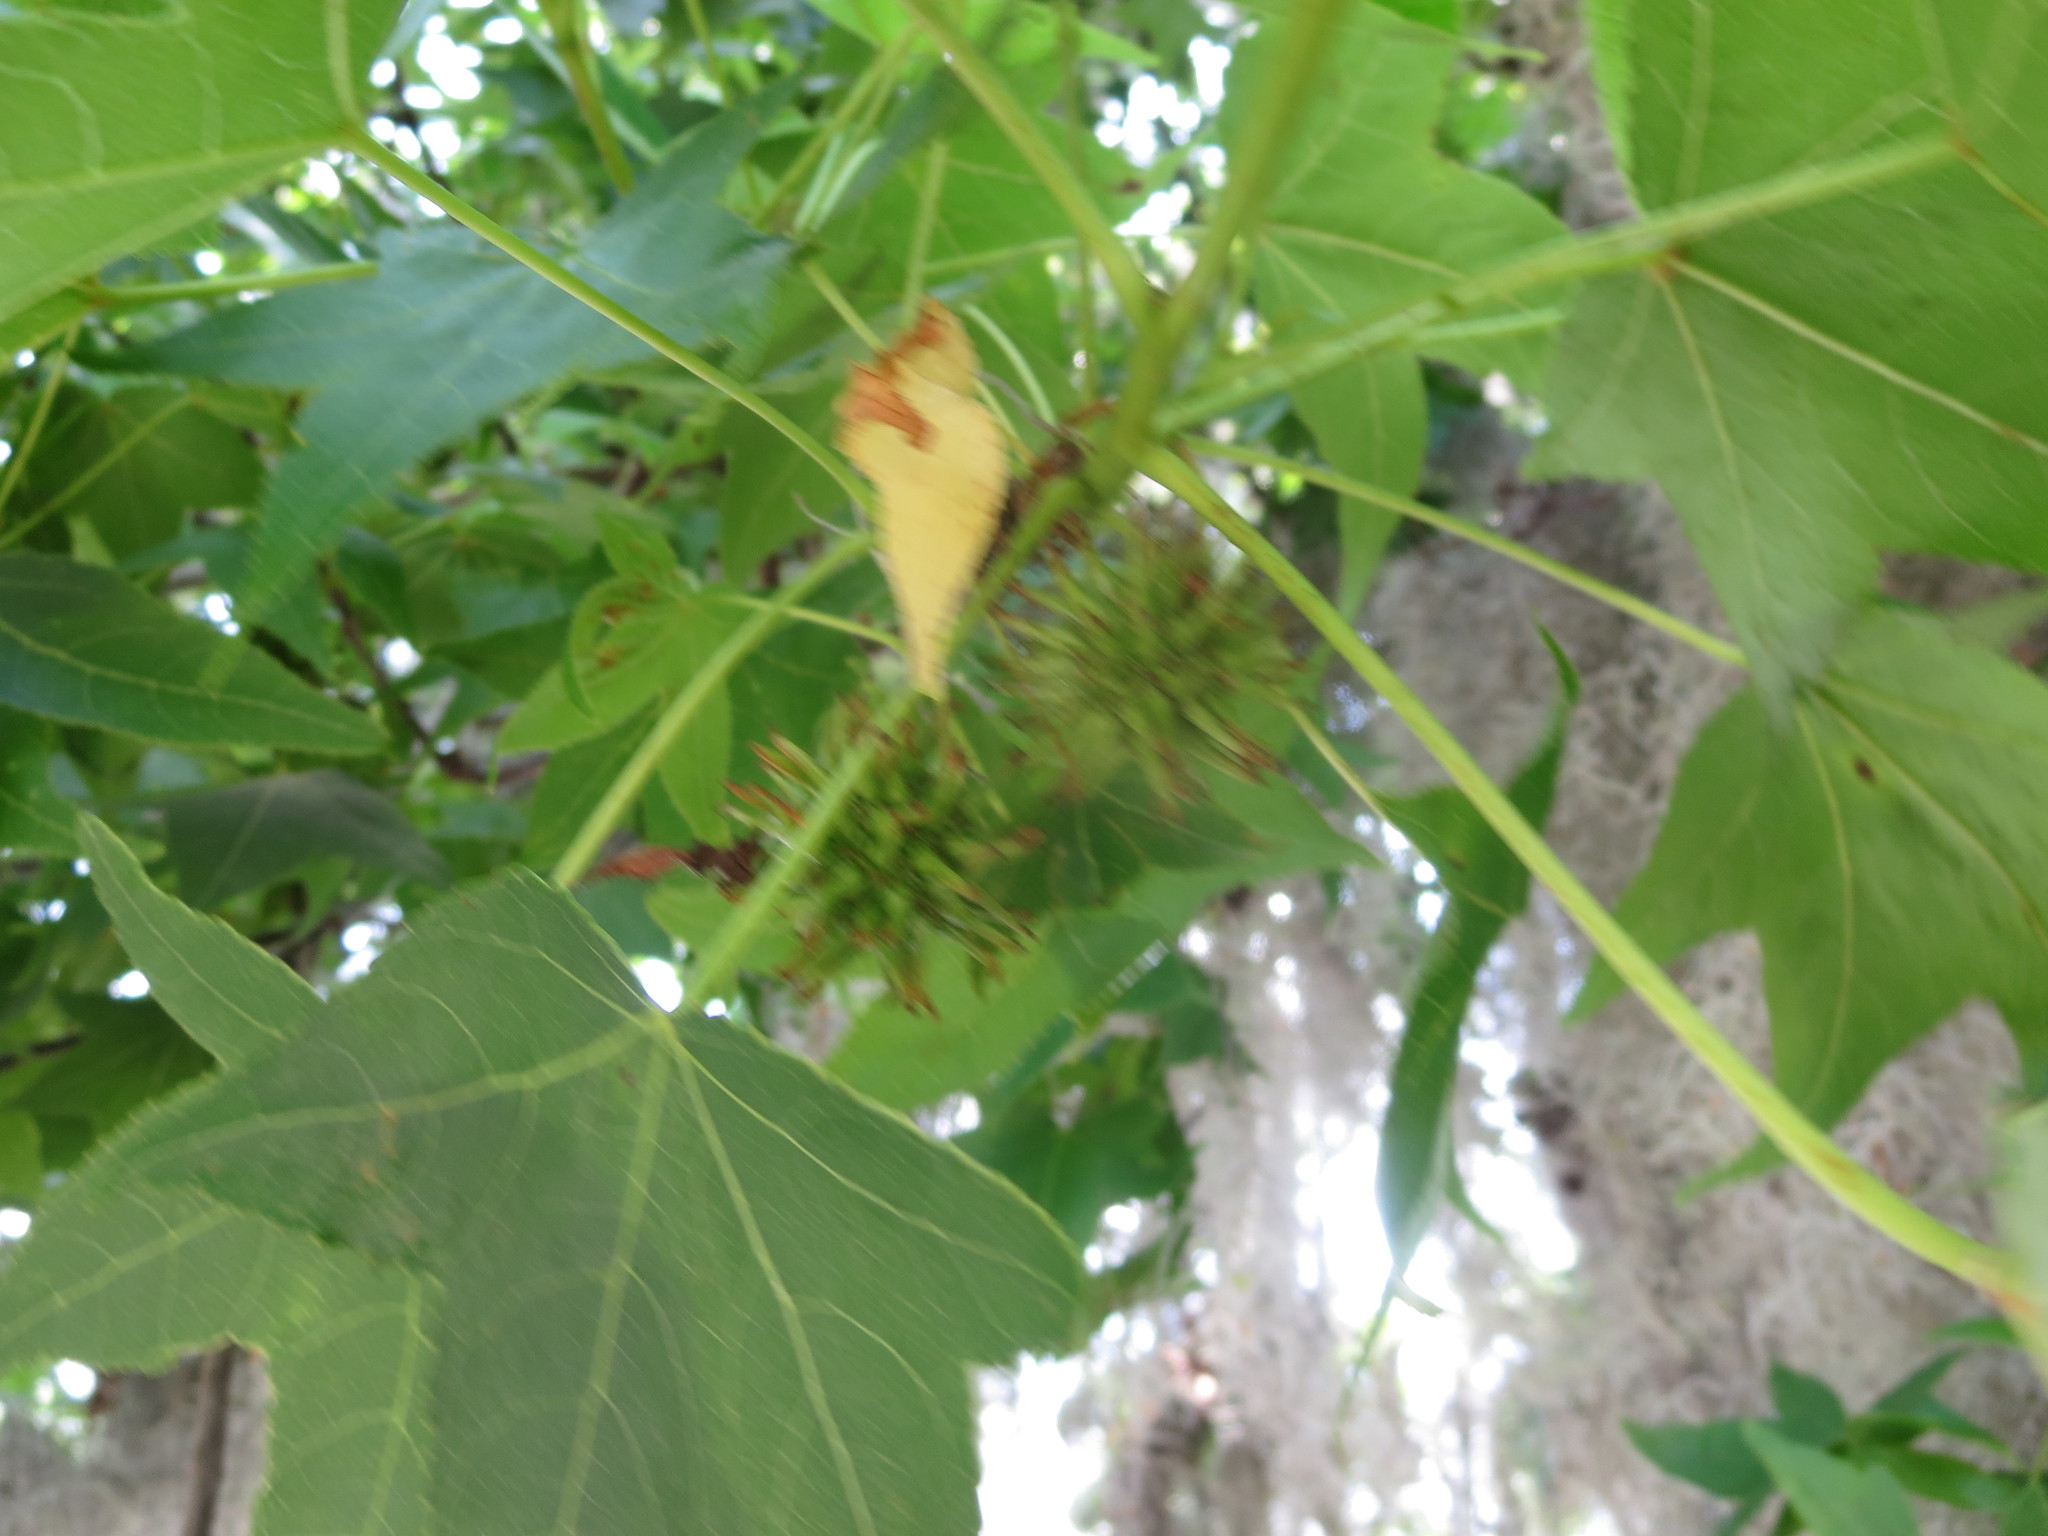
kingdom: Plantae
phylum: Tracheophyta
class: Magnoliopsida
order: Saxifragales
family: Altingiaceae
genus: Liquidambar
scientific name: Liquidambar styraciflua
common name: Sweet gum
